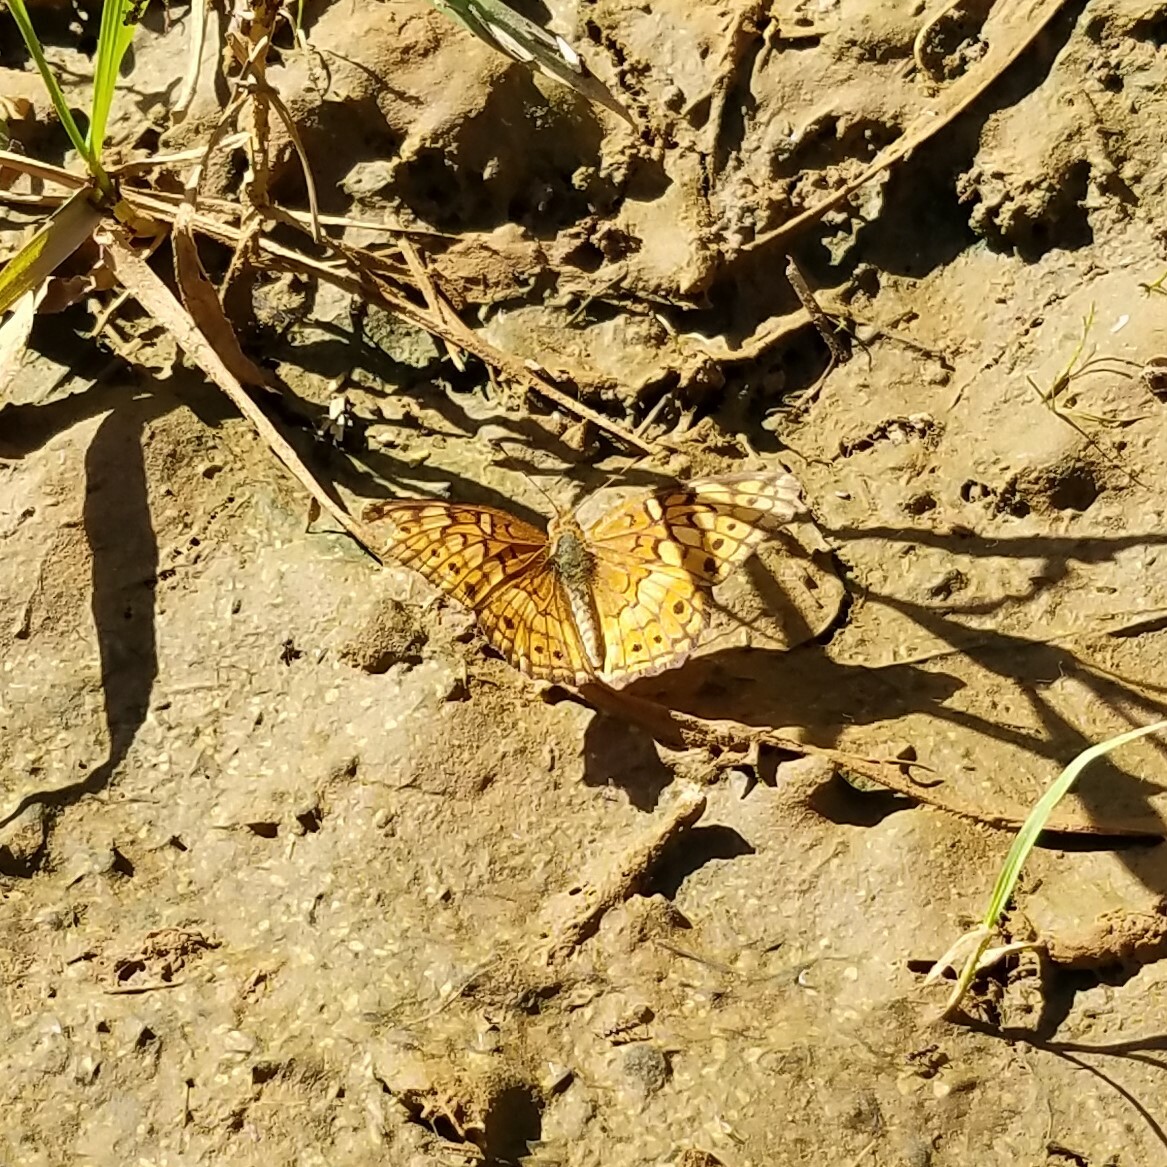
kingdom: Animalia
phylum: Arthropoda
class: Insecta
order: Lepidoptera
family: Nymphalidae
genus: Euptoieta
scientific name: Euptoieta claudia
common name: Variegated fritillary
